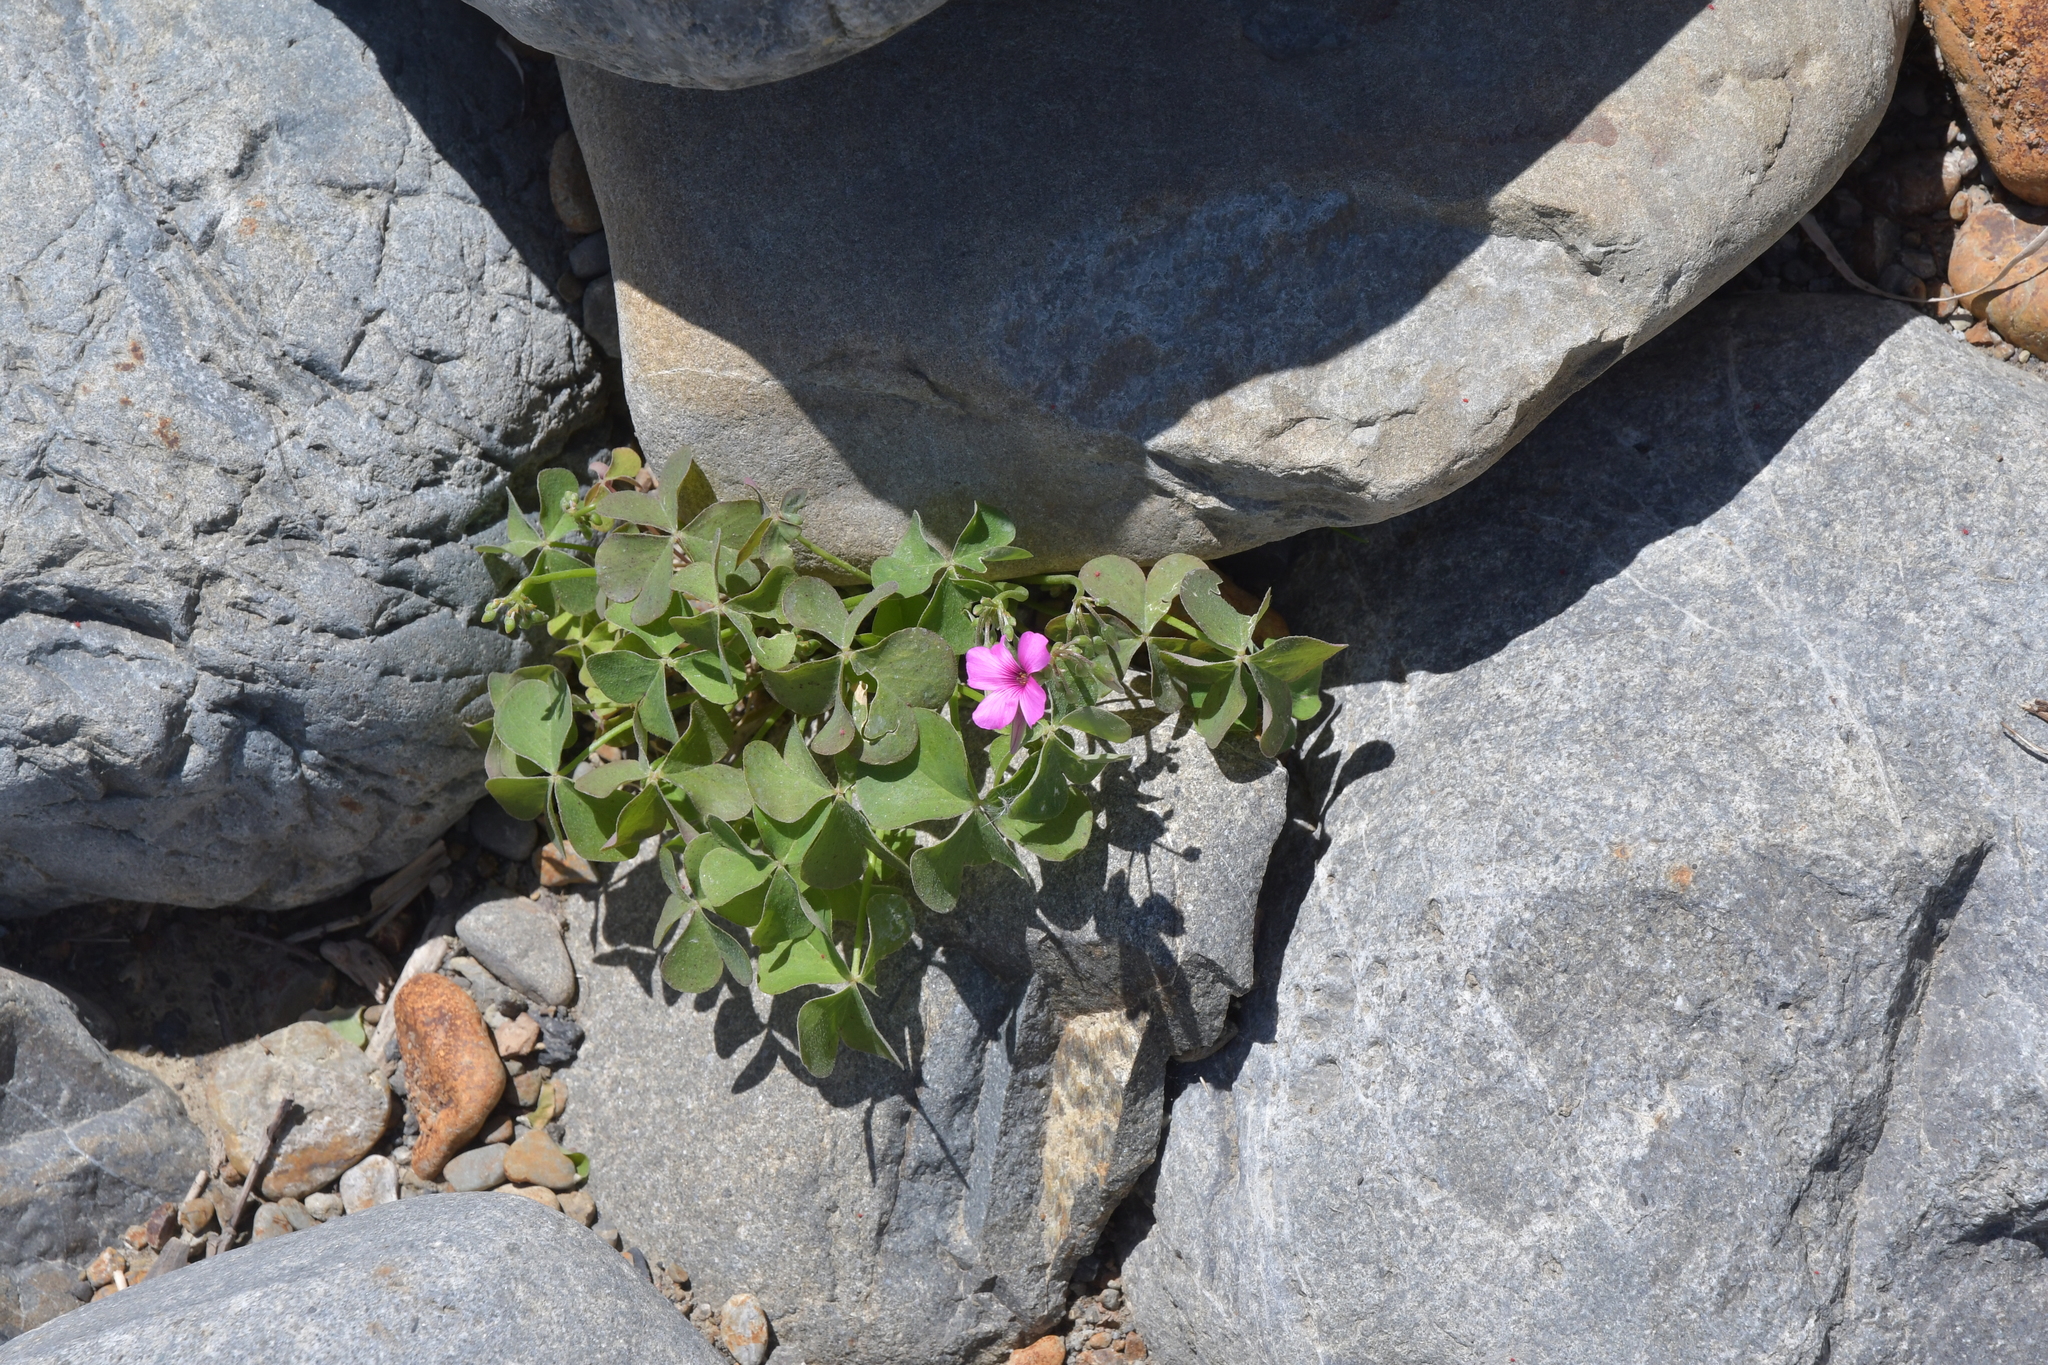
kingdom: Plantae
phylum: Tracheophyta
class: Magnoliopsida
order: Oxalidales
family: Oxalidaceae
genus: Oxalis
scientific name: Oxalis articulata
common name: Pink-sorrel
